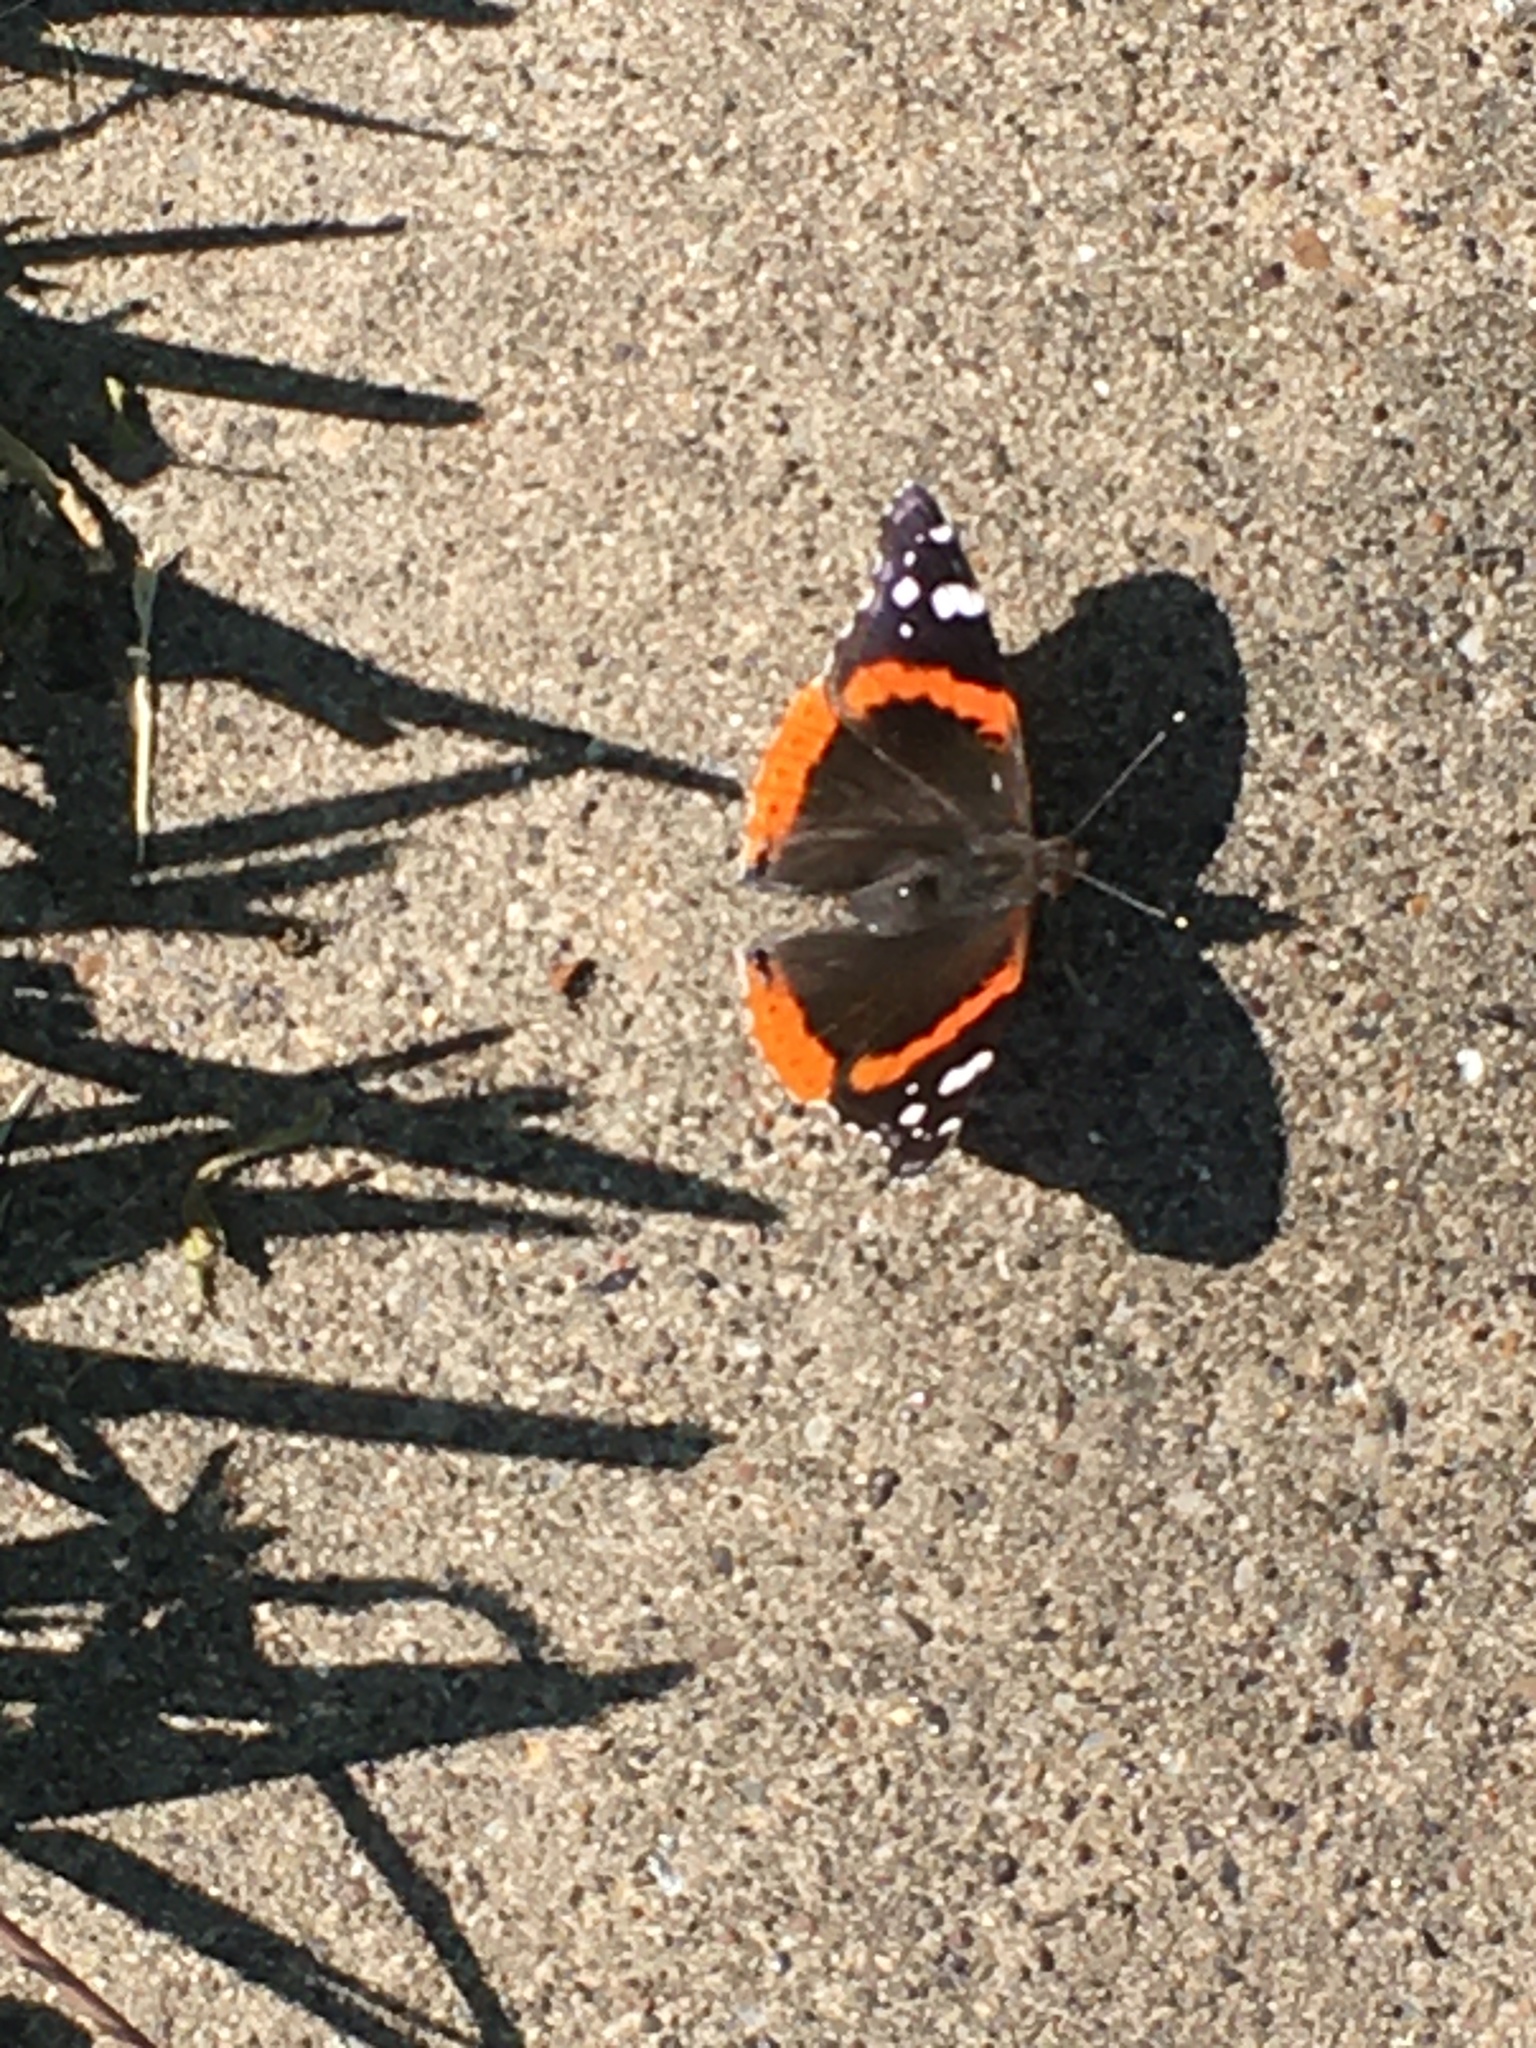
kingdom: Animalia
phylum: Arthropoda
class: Insecta
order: Lepidoptera
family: Nymphalidae
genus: Vanessa
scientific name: Vanessa atalanta
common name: Red admiral
